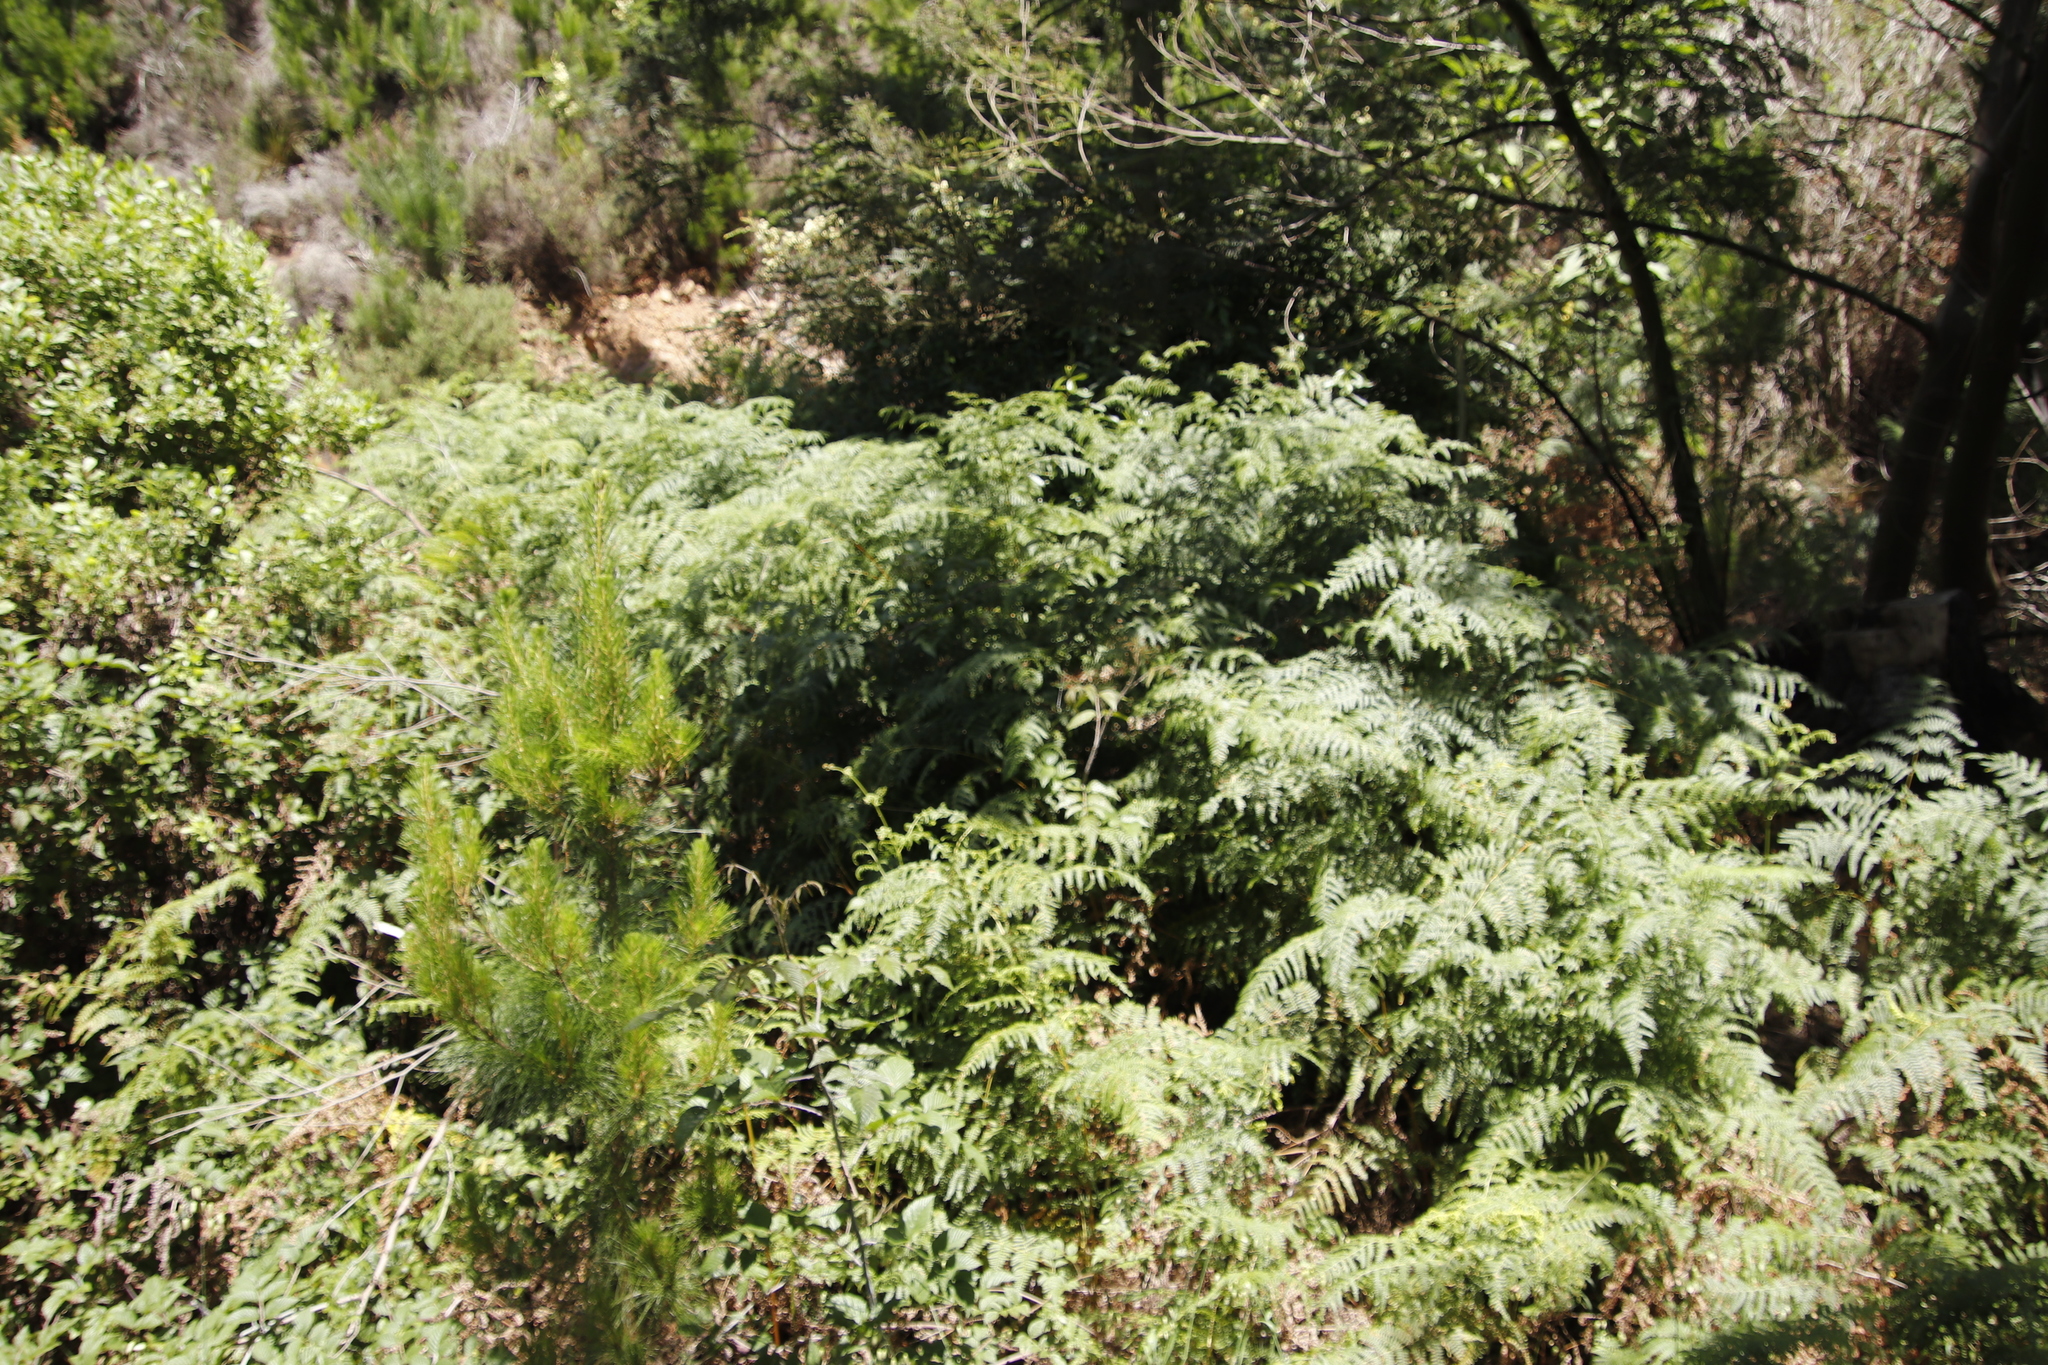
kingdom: Plantae
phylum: Tracheophyta
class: Polypodiopsida
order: Polypodiales
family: Dennstaedtiaceae
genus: Pteridium
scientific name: Pteridium aquilinum
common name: Bracken
